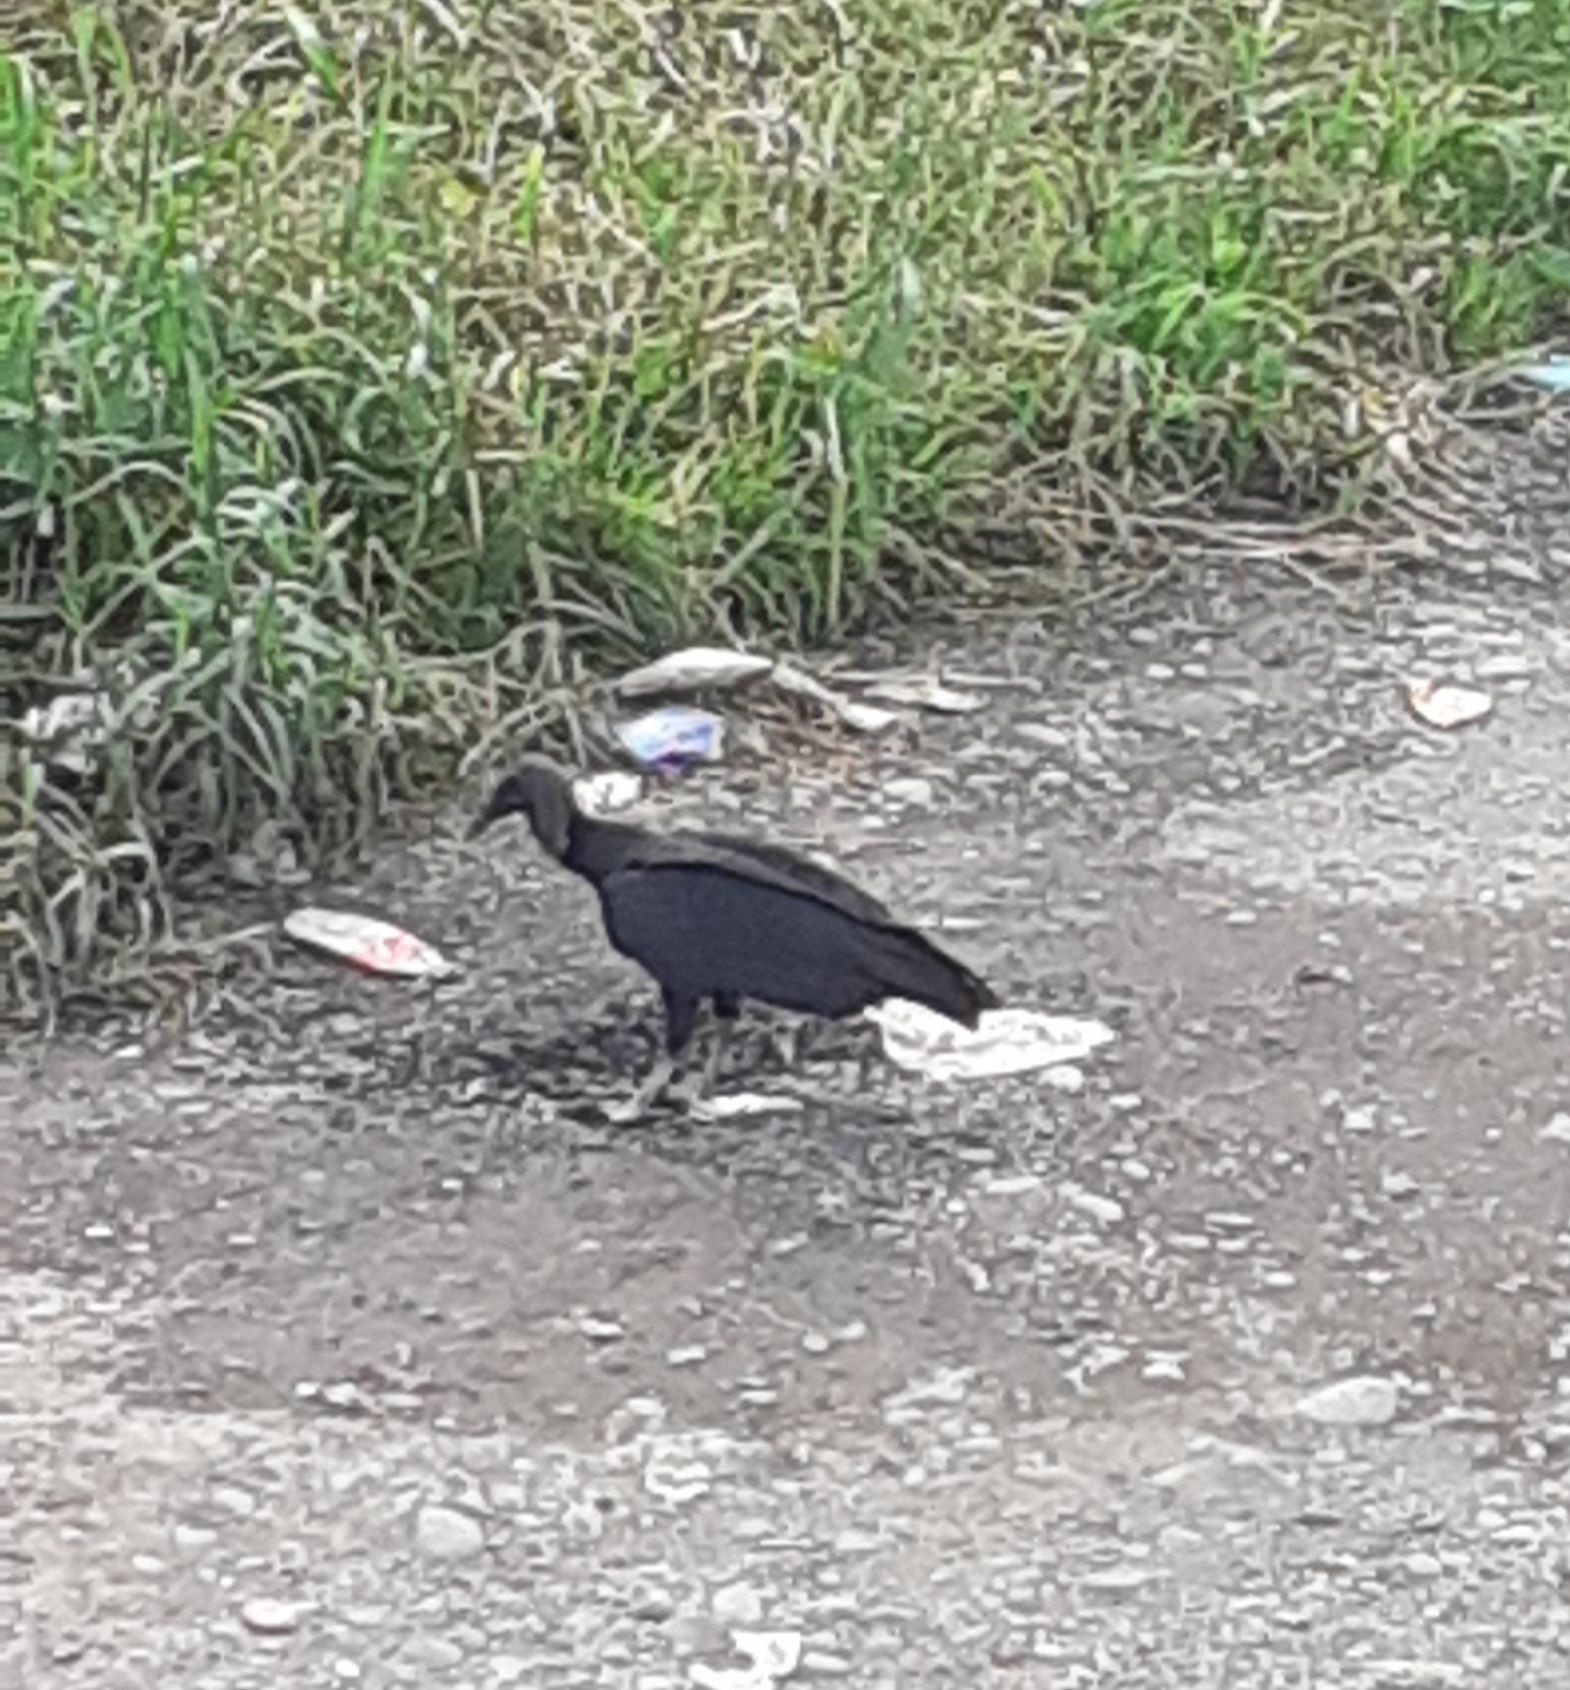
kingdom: Animalia
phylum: Chordata
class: Aves
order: Accipitriformes
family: Cathartidae
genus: Coragyps
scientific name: Coragyps atratus
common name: Black vulture
